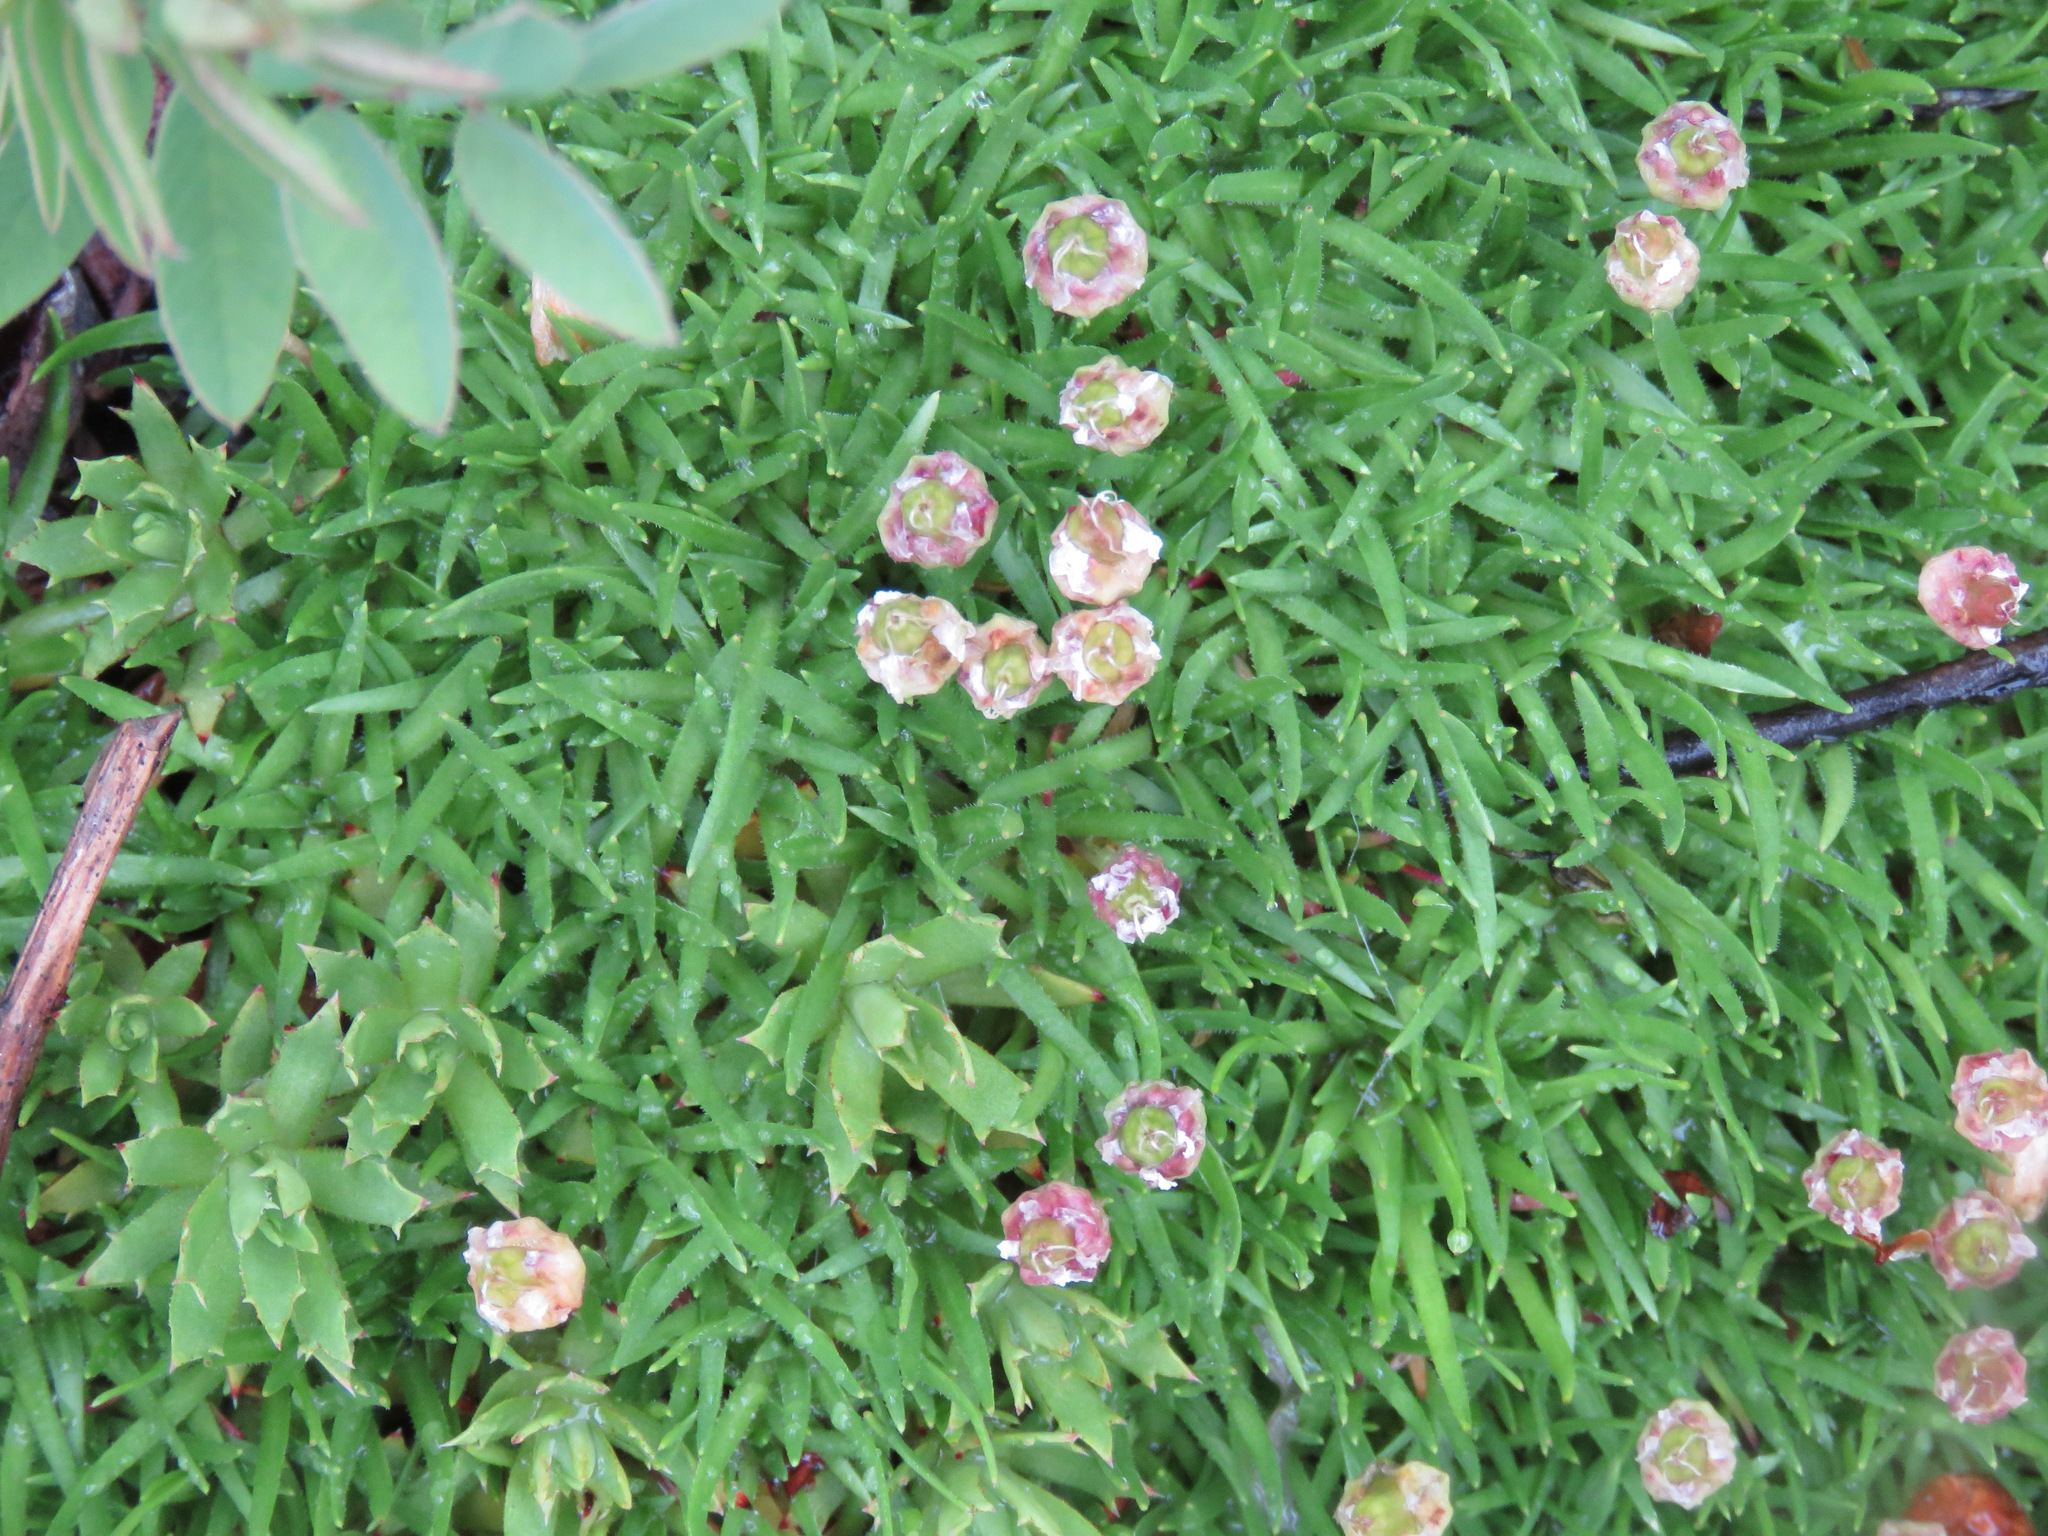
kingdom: Plantae
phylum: Tracheophyta
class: Magnoliopsida
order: Caryophyllales
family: Caryophyllaceae
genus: Silene
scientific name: Silene acaulis
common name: Moss campion
